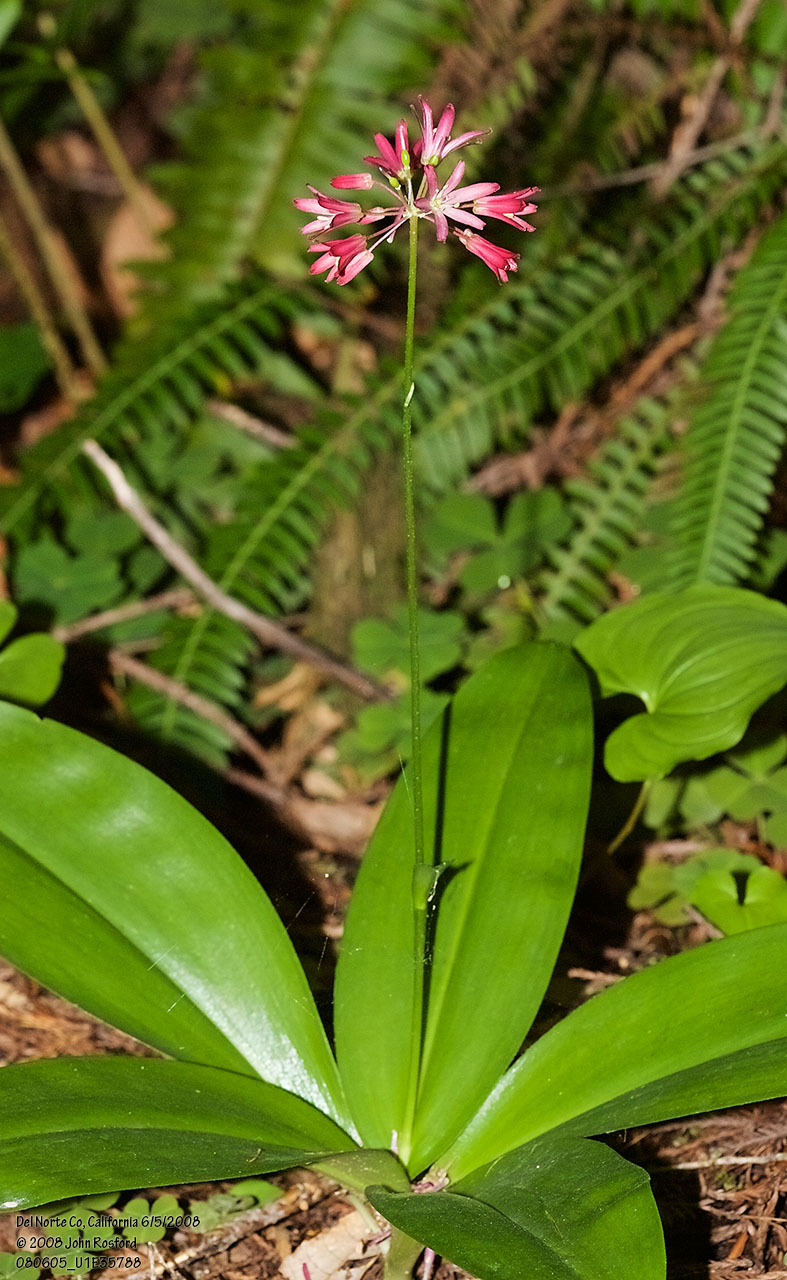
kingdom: Plantae
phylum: Tracheophyta
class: Liliopsida
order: Liliales
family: Liliaceae
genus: Clintonia
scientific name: Clintonia andrewsiana
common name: Red clintonia
